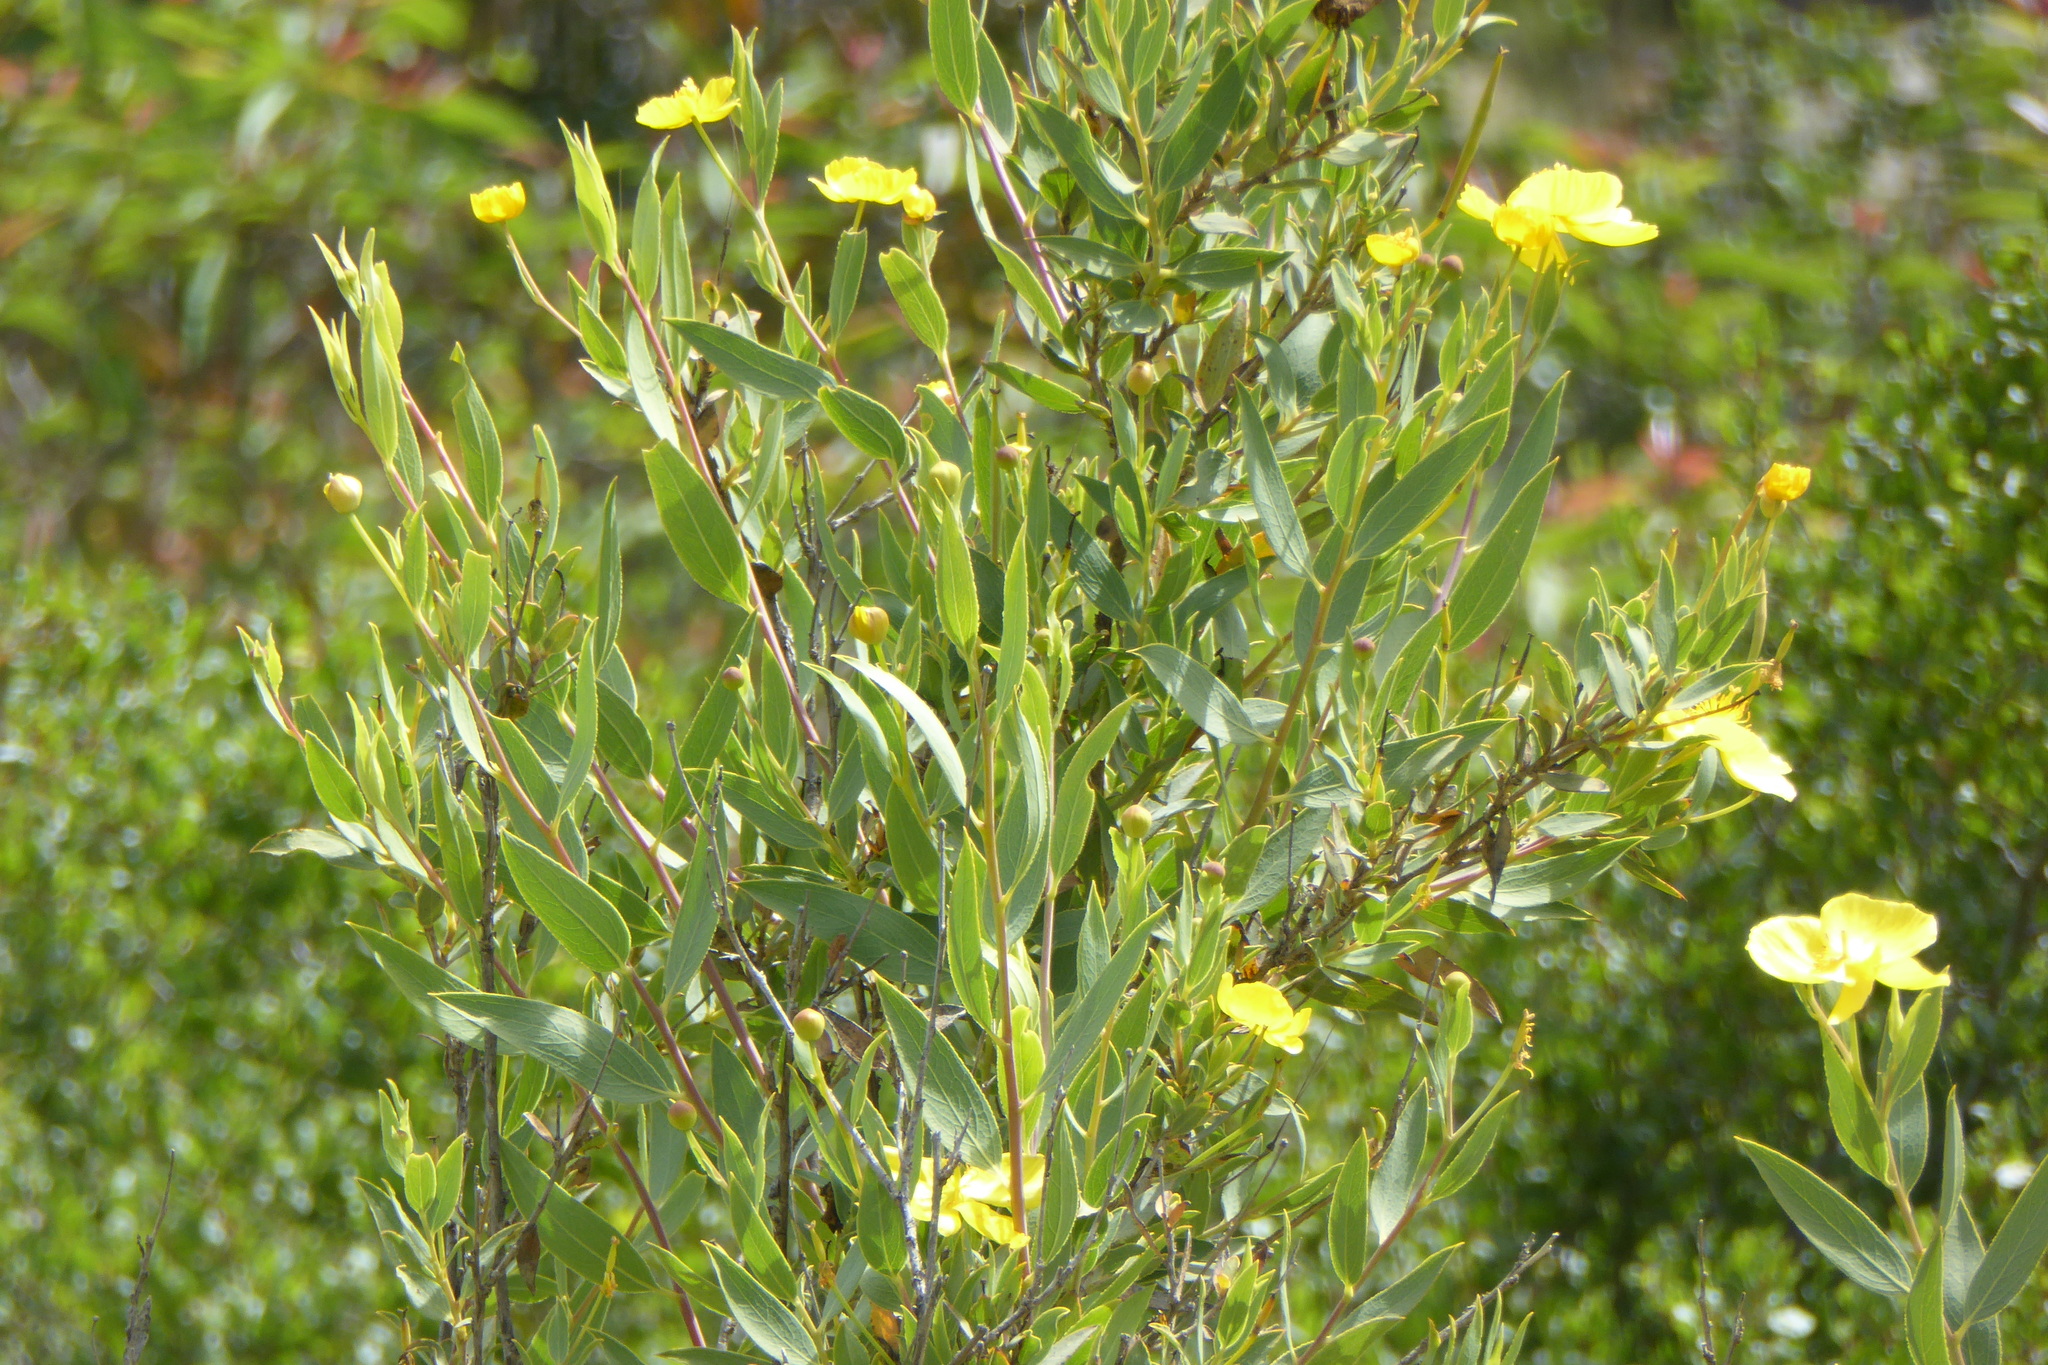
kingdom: Plantae
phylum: Tracheophyta
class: Magnoliopsida
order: Ranunculales
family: Papaveraceae
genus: Dendromecon
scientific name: Dendromecon rigida
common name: Tree poppy
